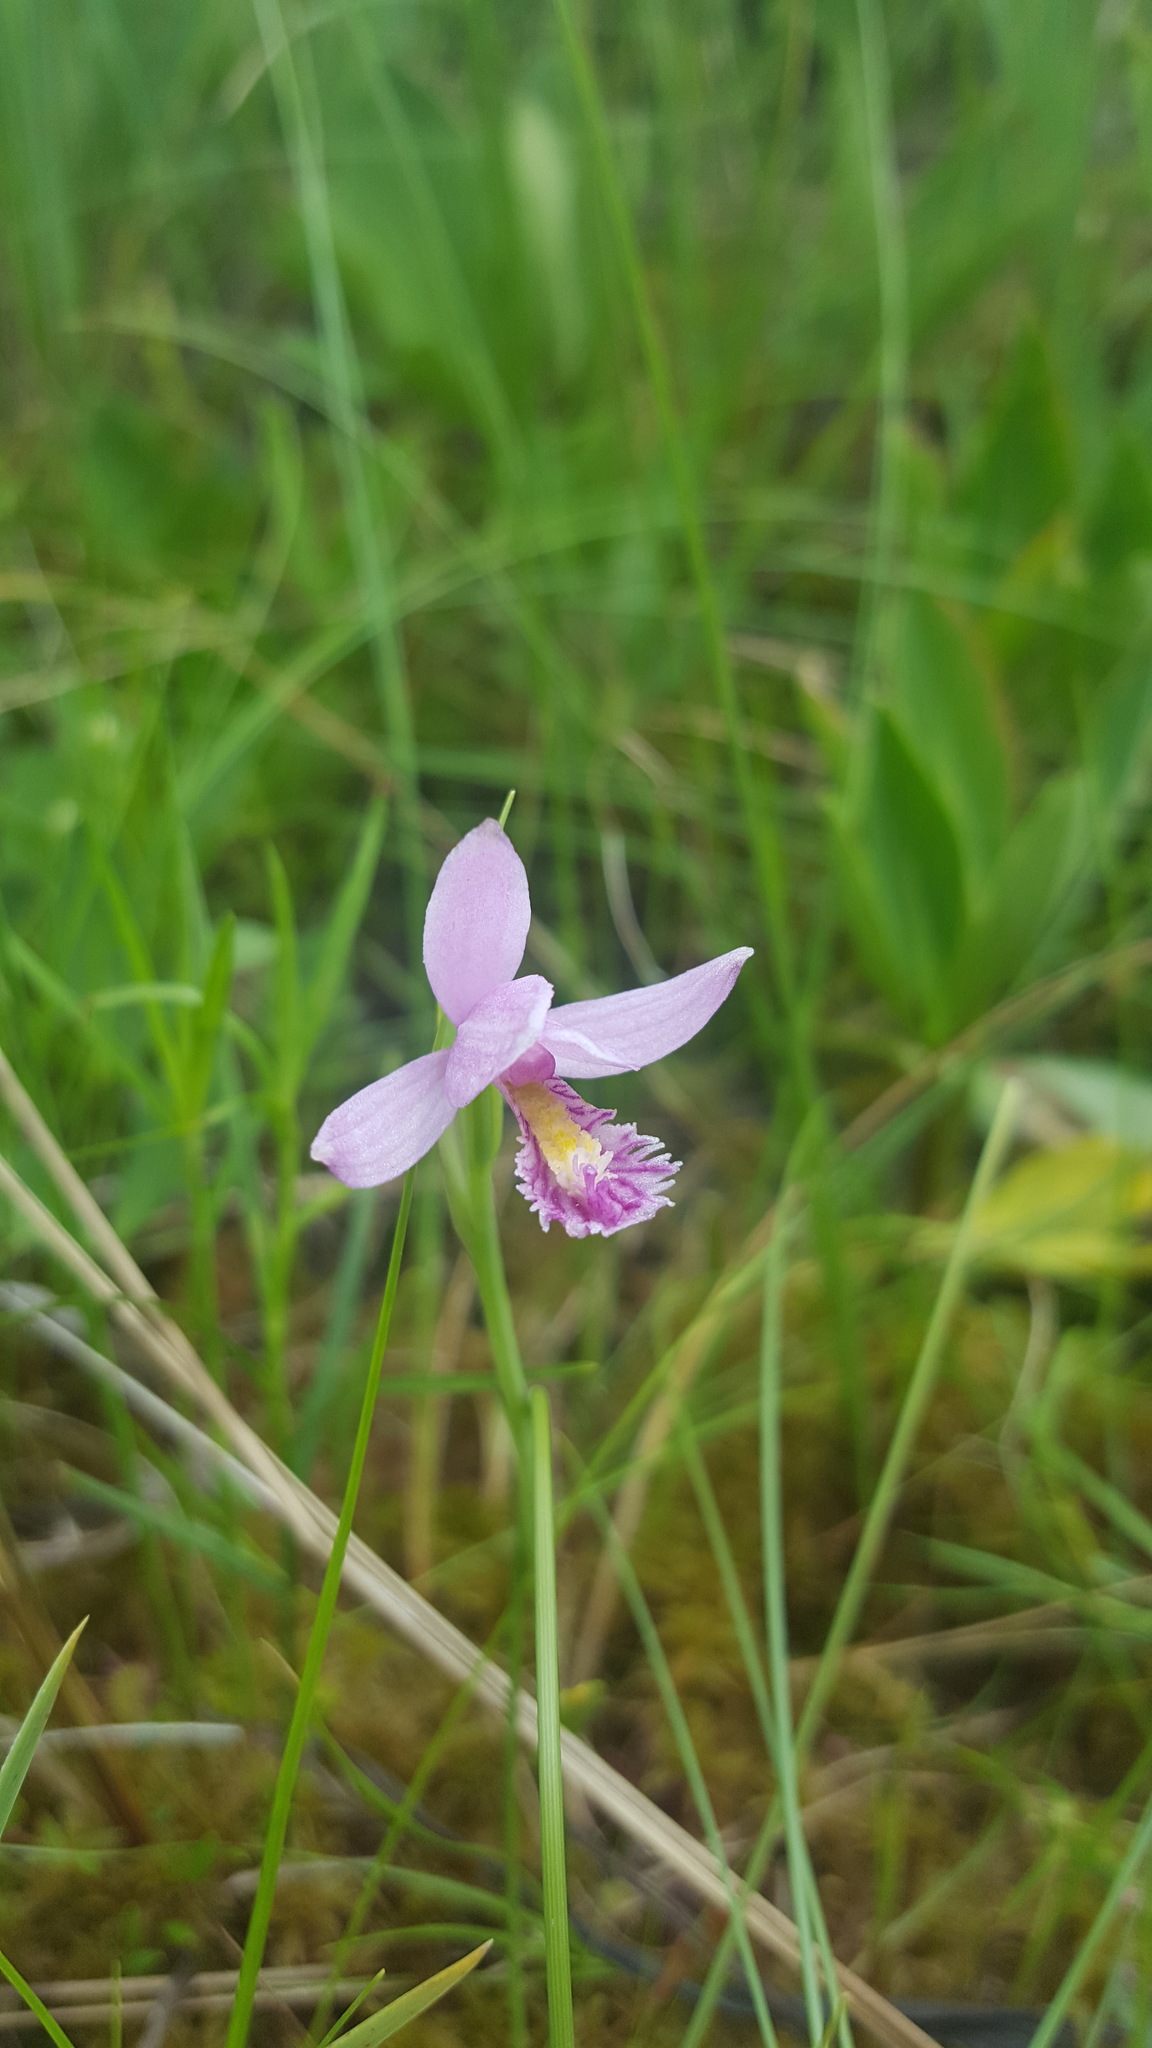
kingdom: Plantae
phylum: Tracheophyta
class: Liliopsida
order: Asparagales
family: Orchidaceae
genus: Pogonia
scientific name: Pogonia ophioglossoides
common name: Rose pogonia
